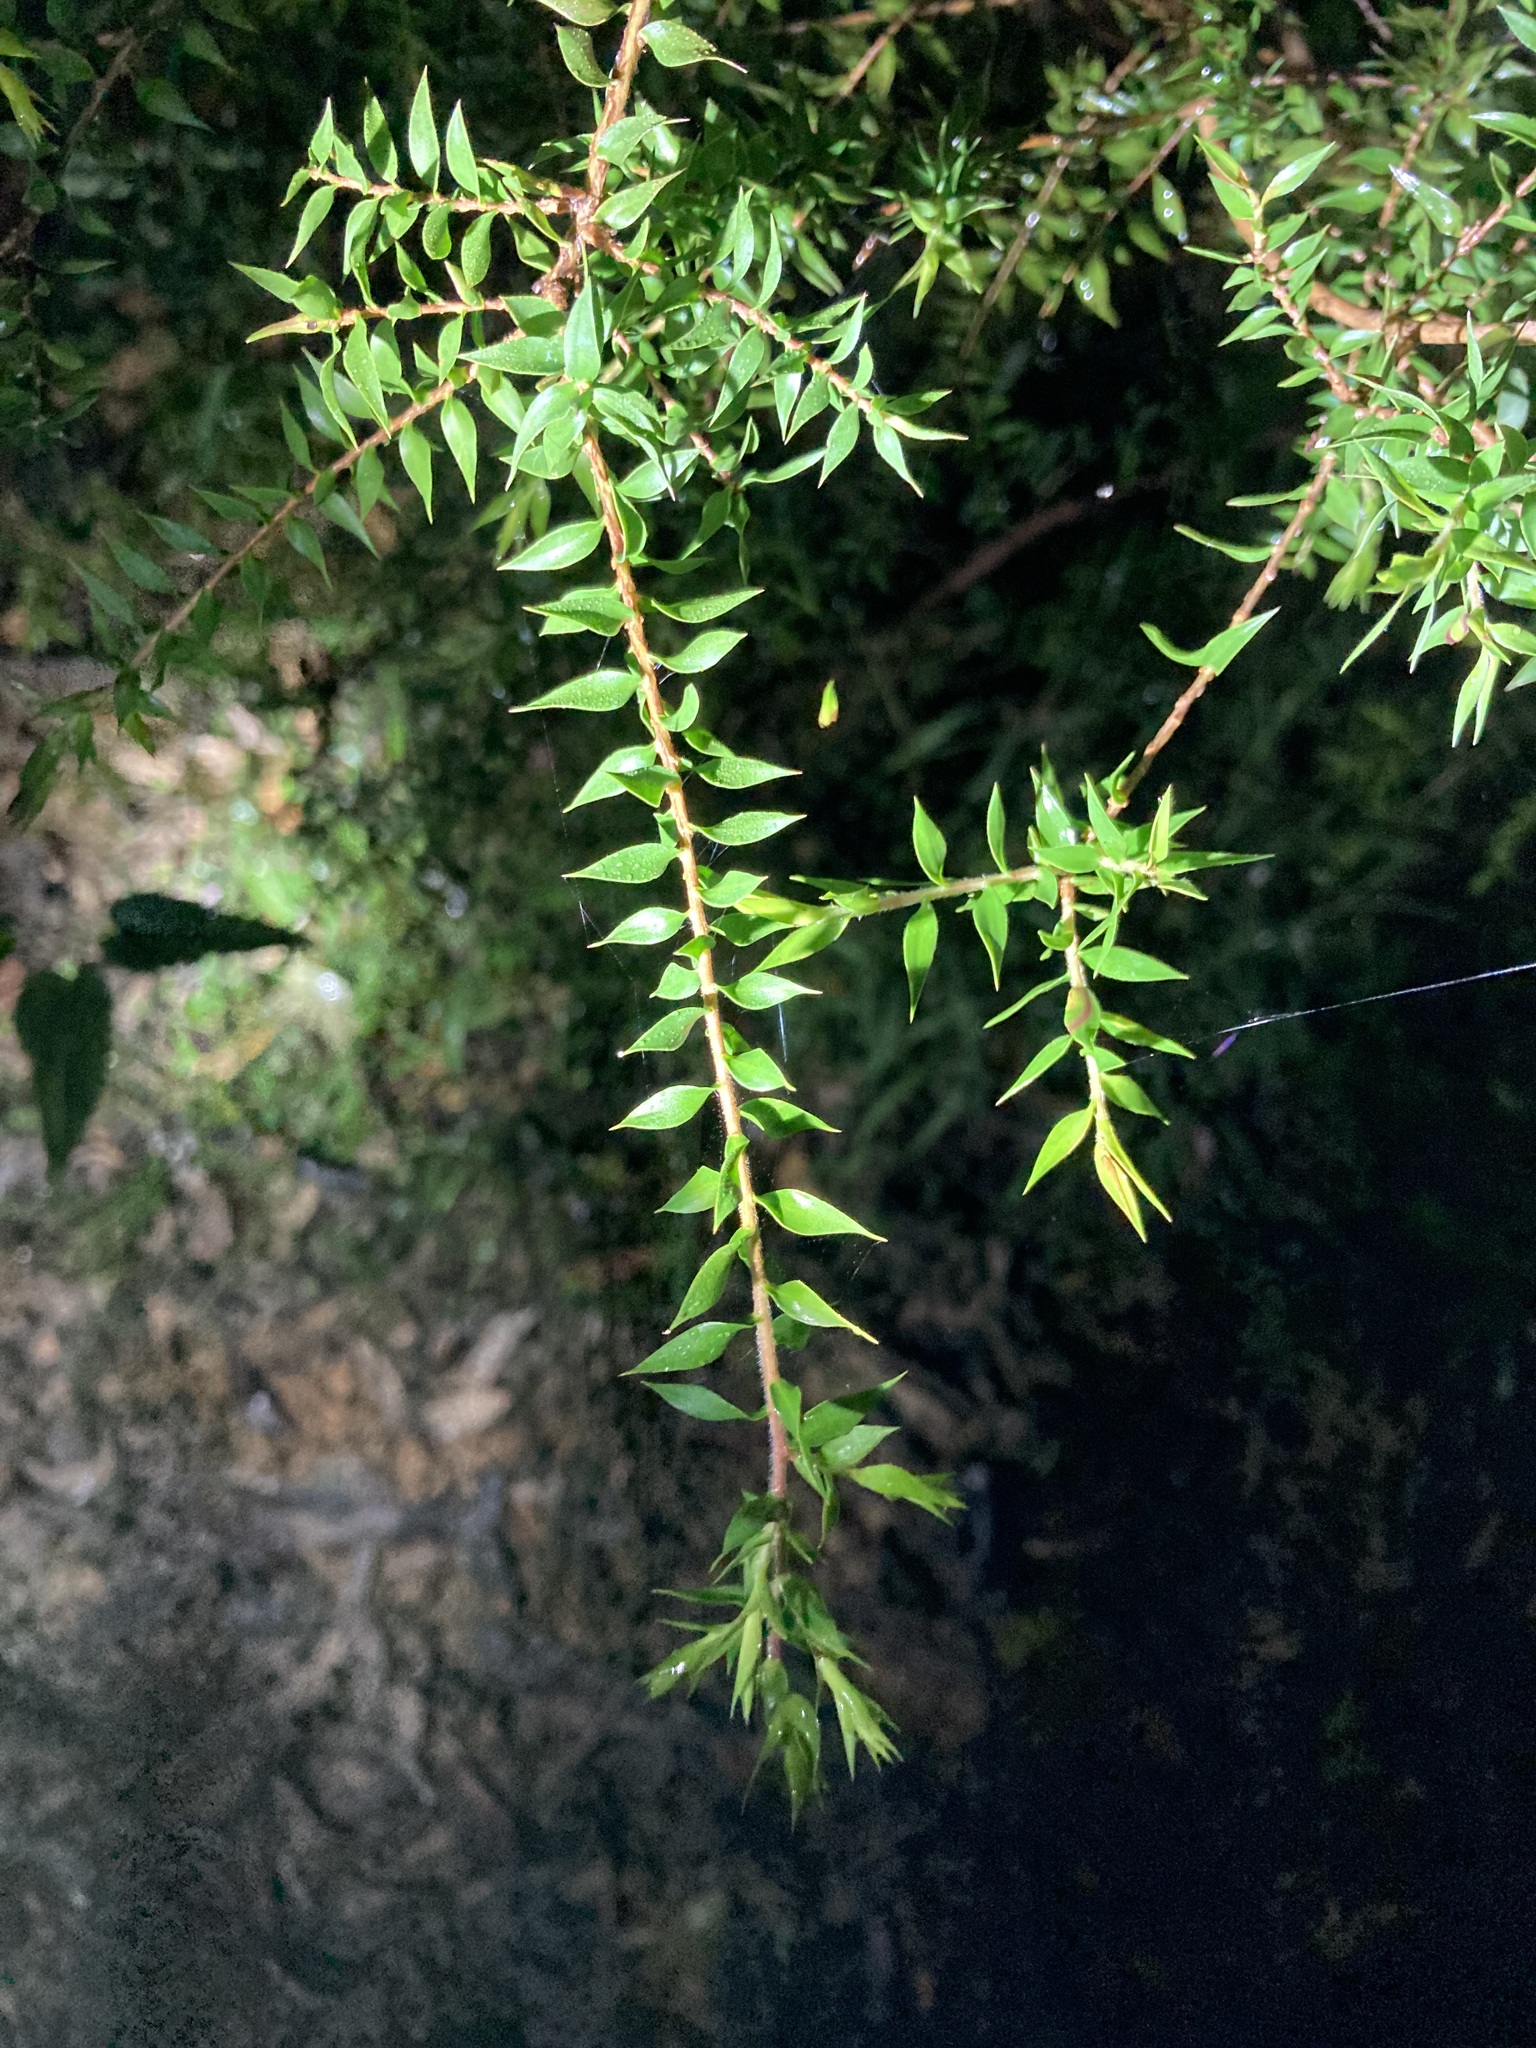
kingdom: Plantae
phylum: Tracheophyta
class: Magnoliopsida
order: Myrtales
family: Myrtaceae
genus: Melaleuca
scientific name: Melaleuca styphelioides
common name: Prickly paperbark
